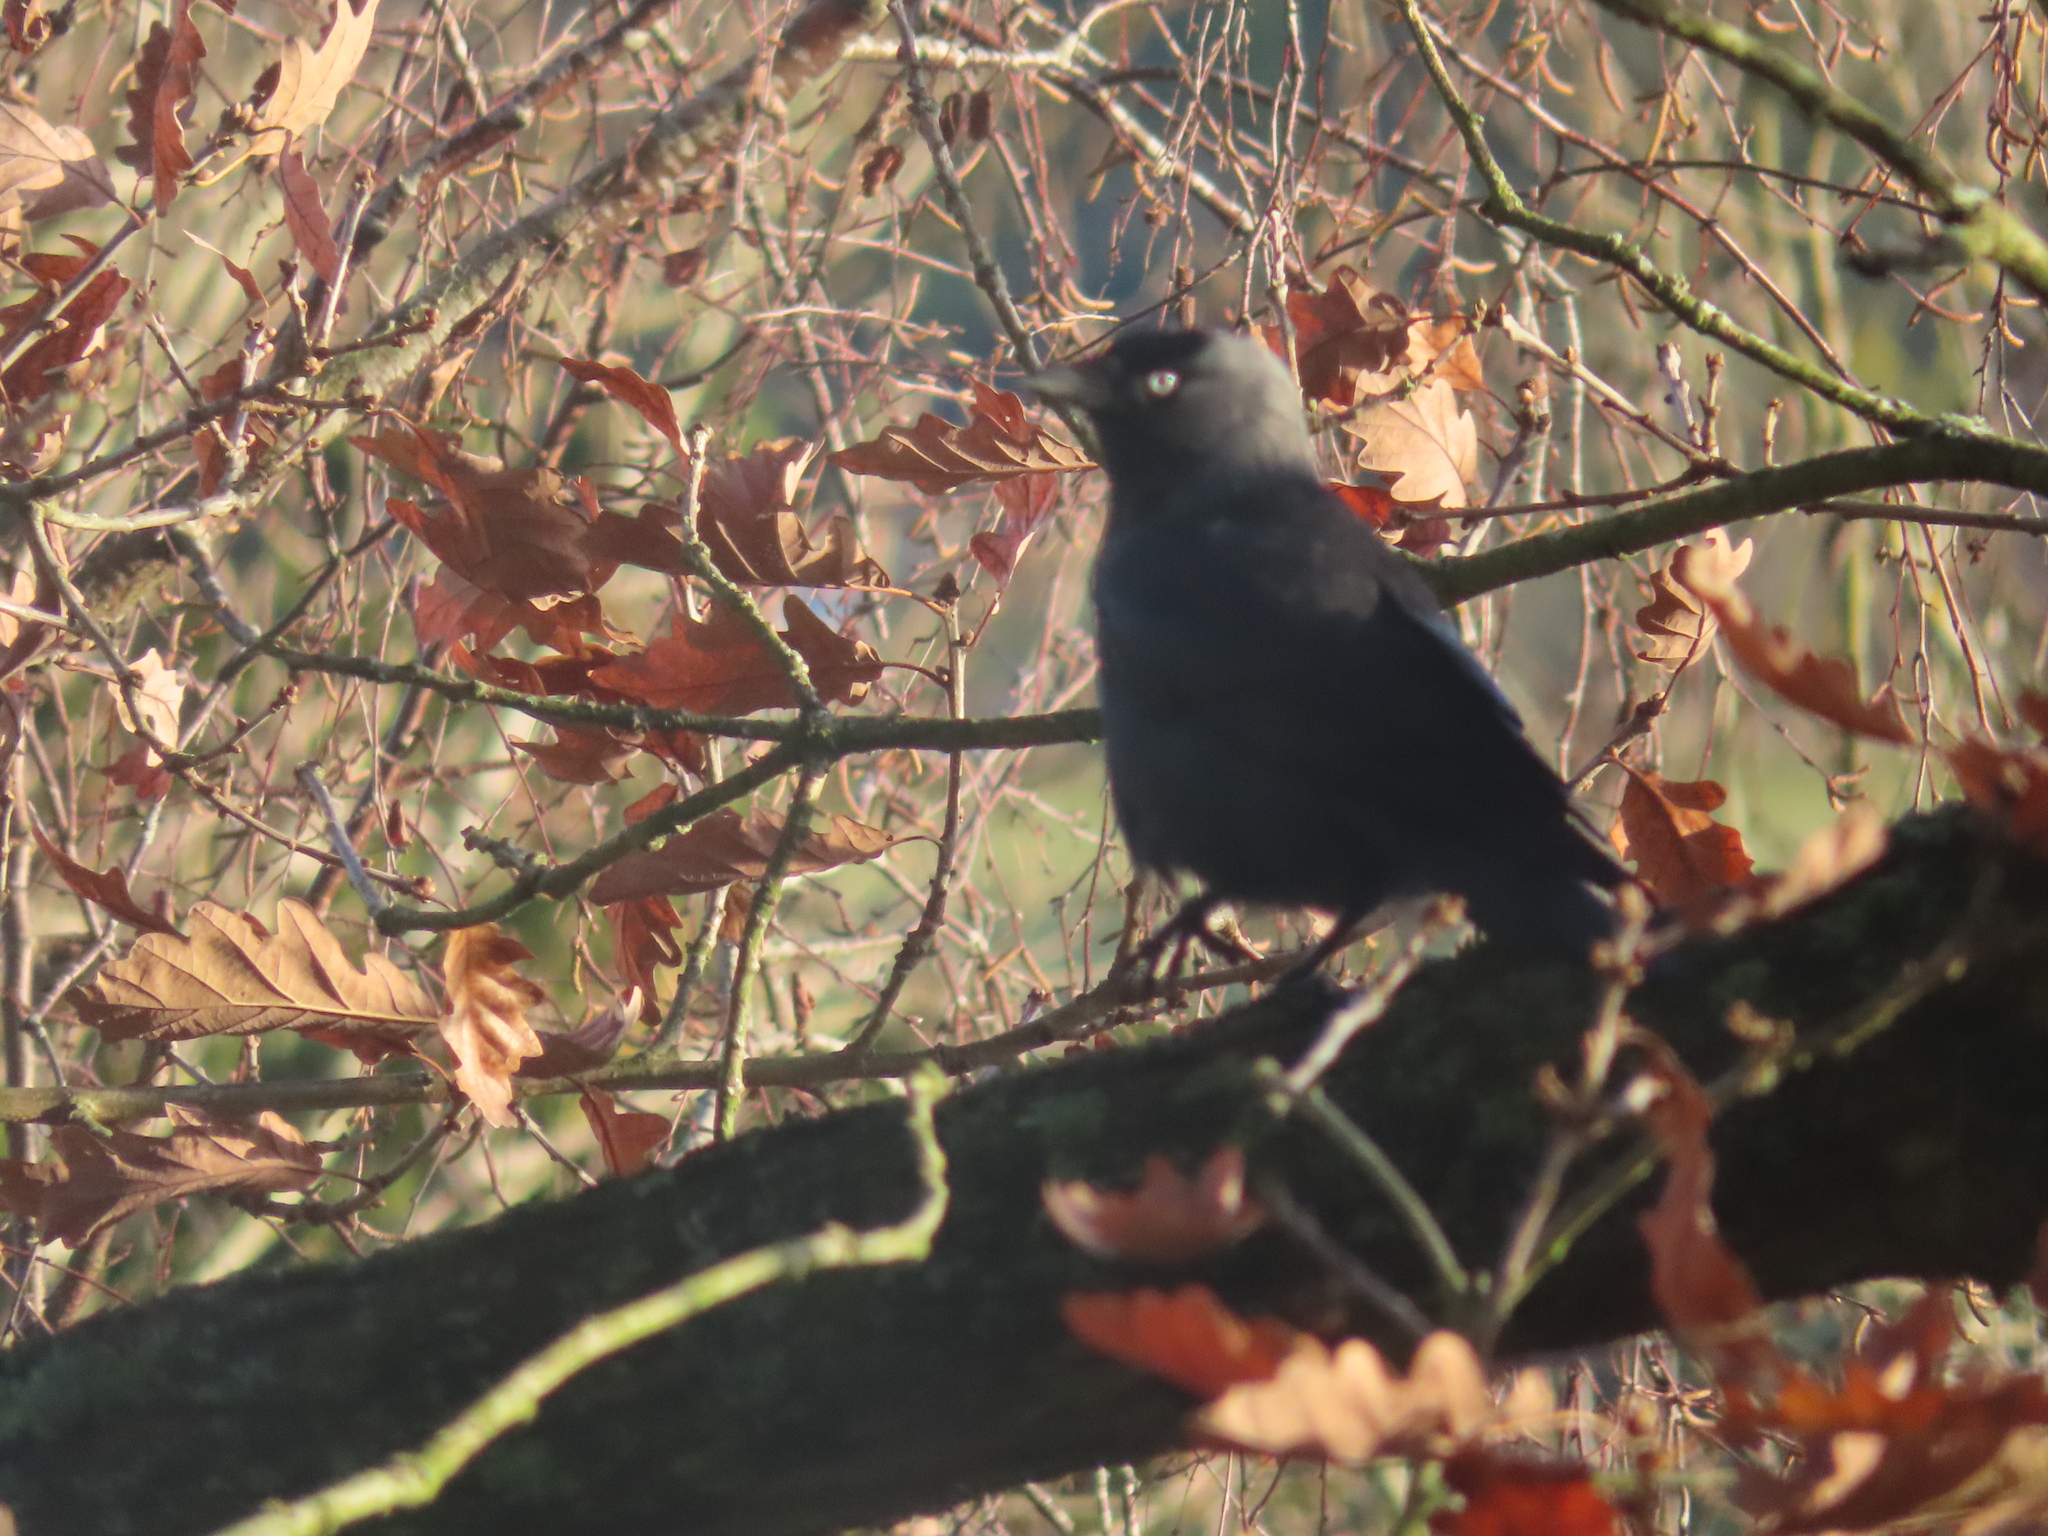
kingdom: Animalia
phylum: Chordata
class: Aves
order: Passeriformes
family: Corvidae
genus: Coloeus
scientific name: Coloeus monedula
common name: Western jackdaw
